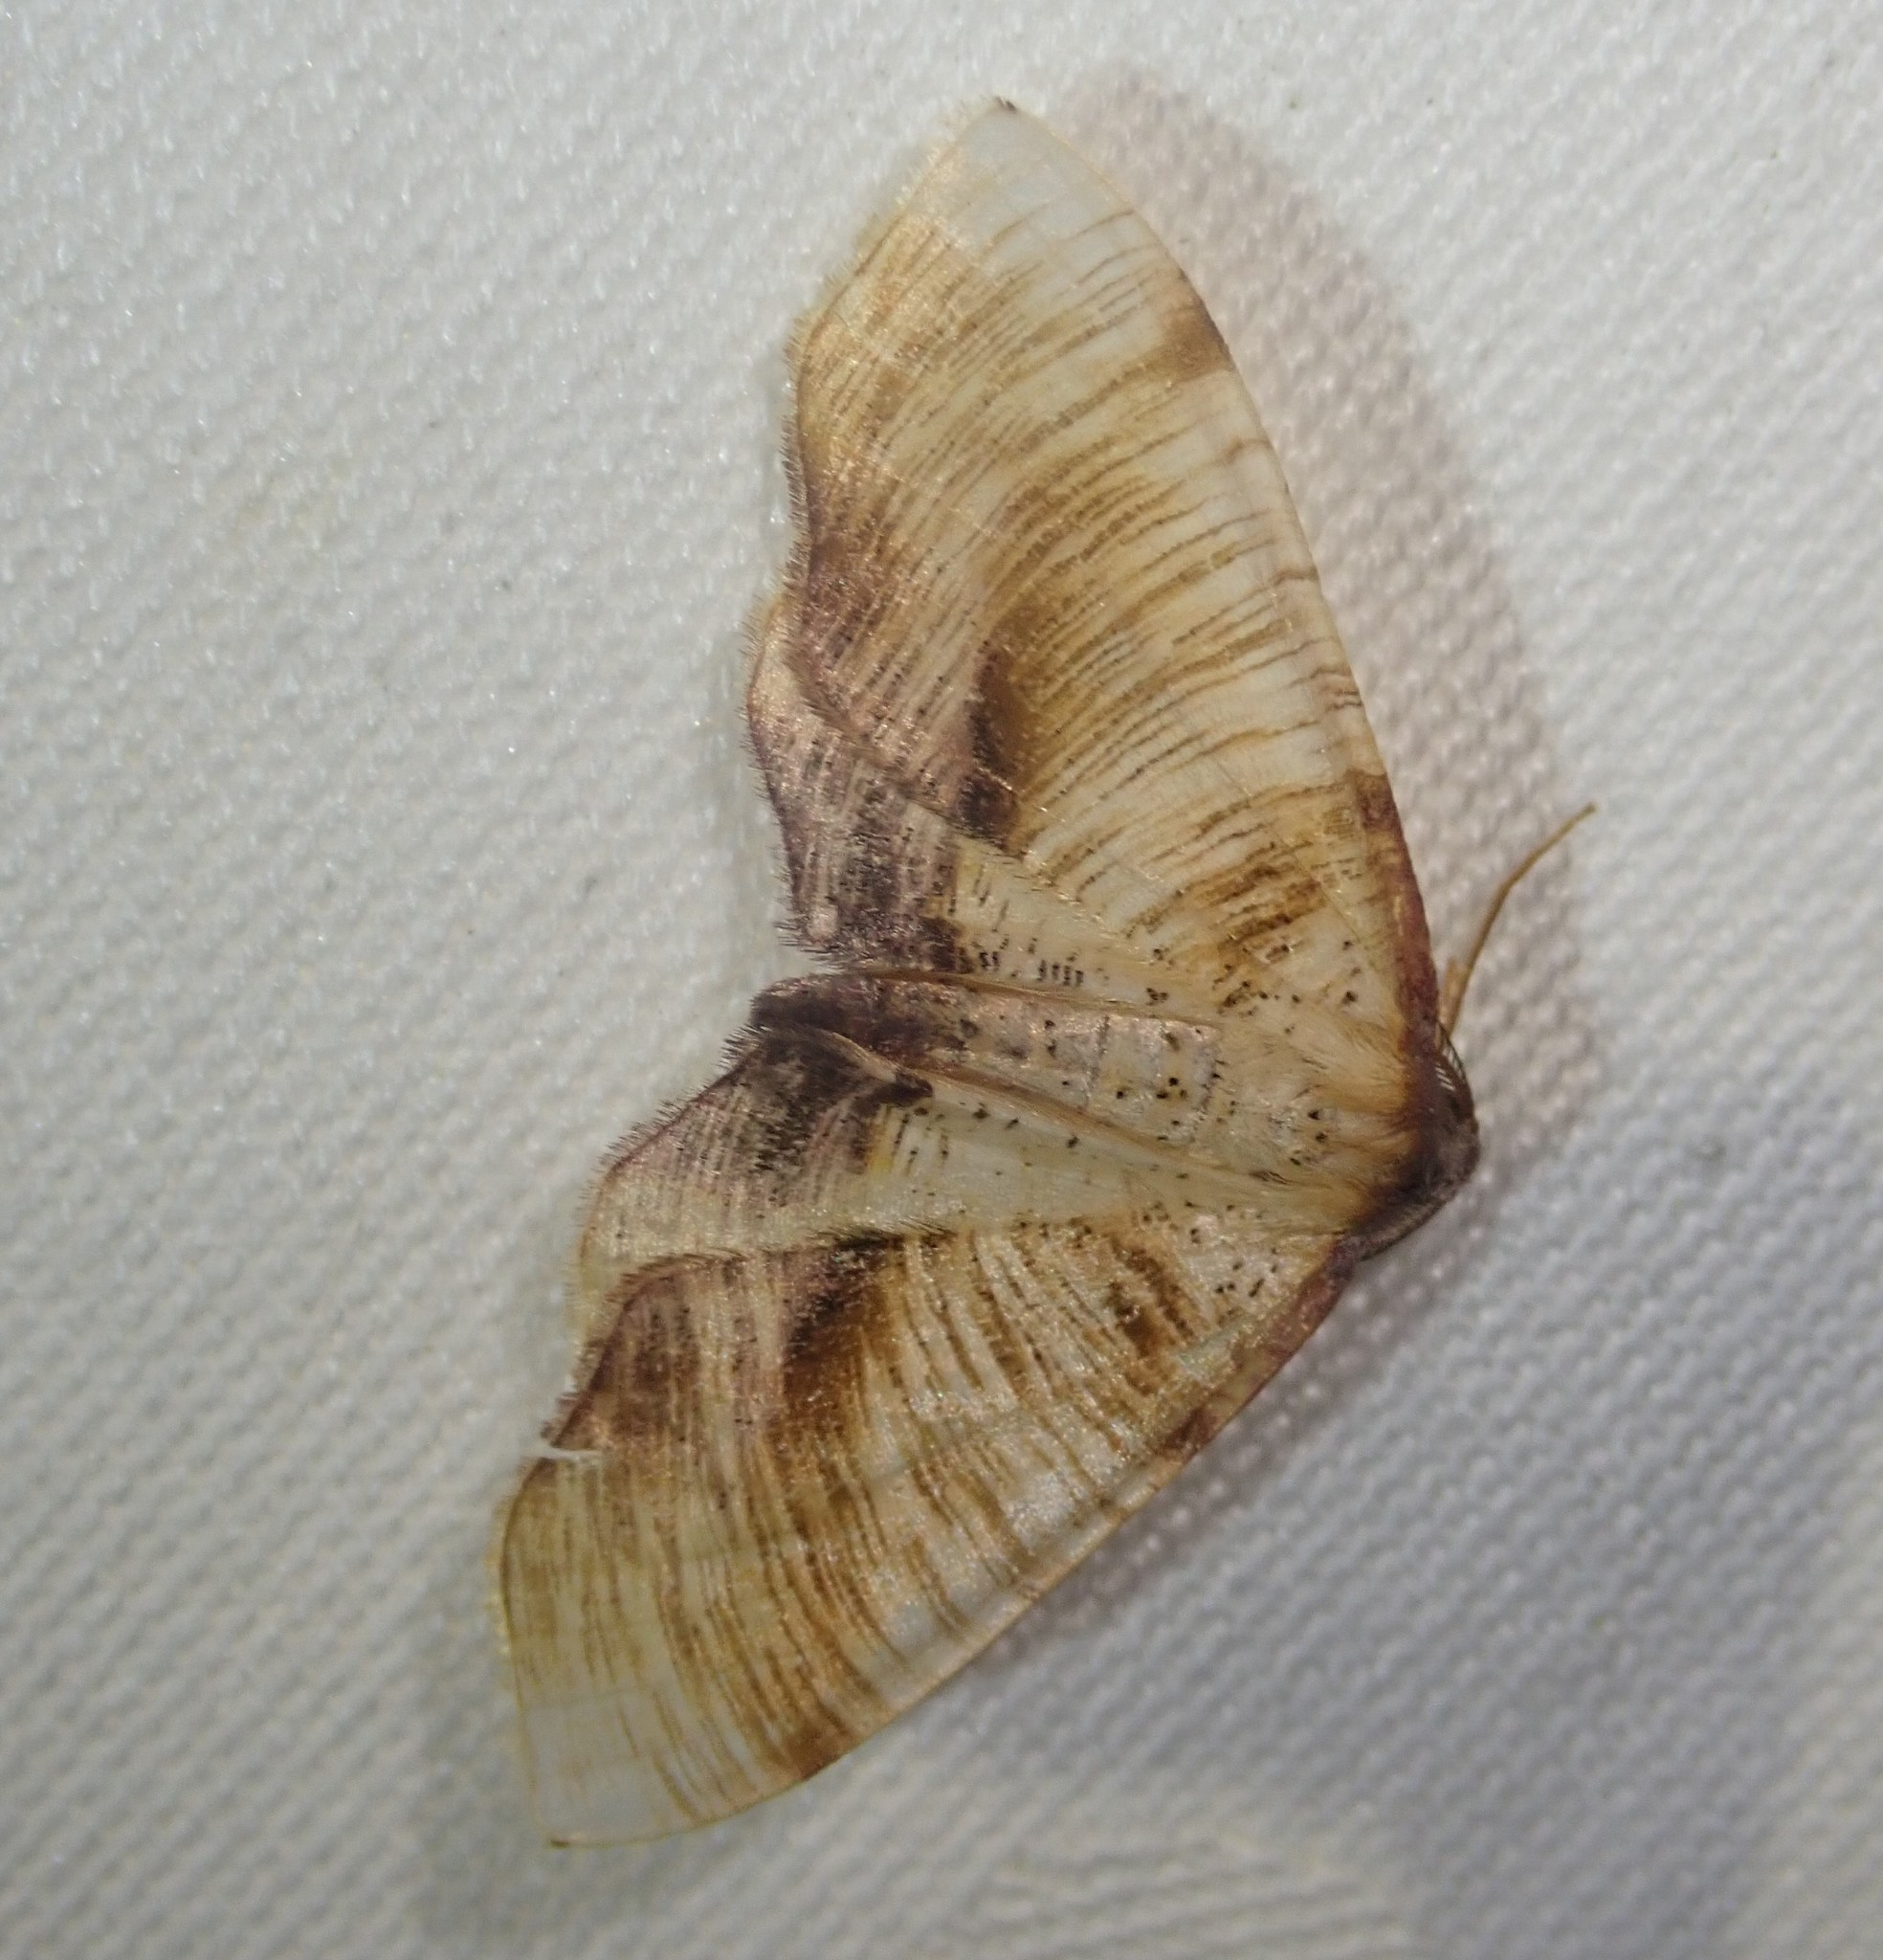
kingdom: Animalia
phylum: Arthropoda
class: Insecta
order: Lepidoptera
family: Geometridae
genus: Plagodis
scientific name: Plagodis dolabraria
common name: Scorched wing
